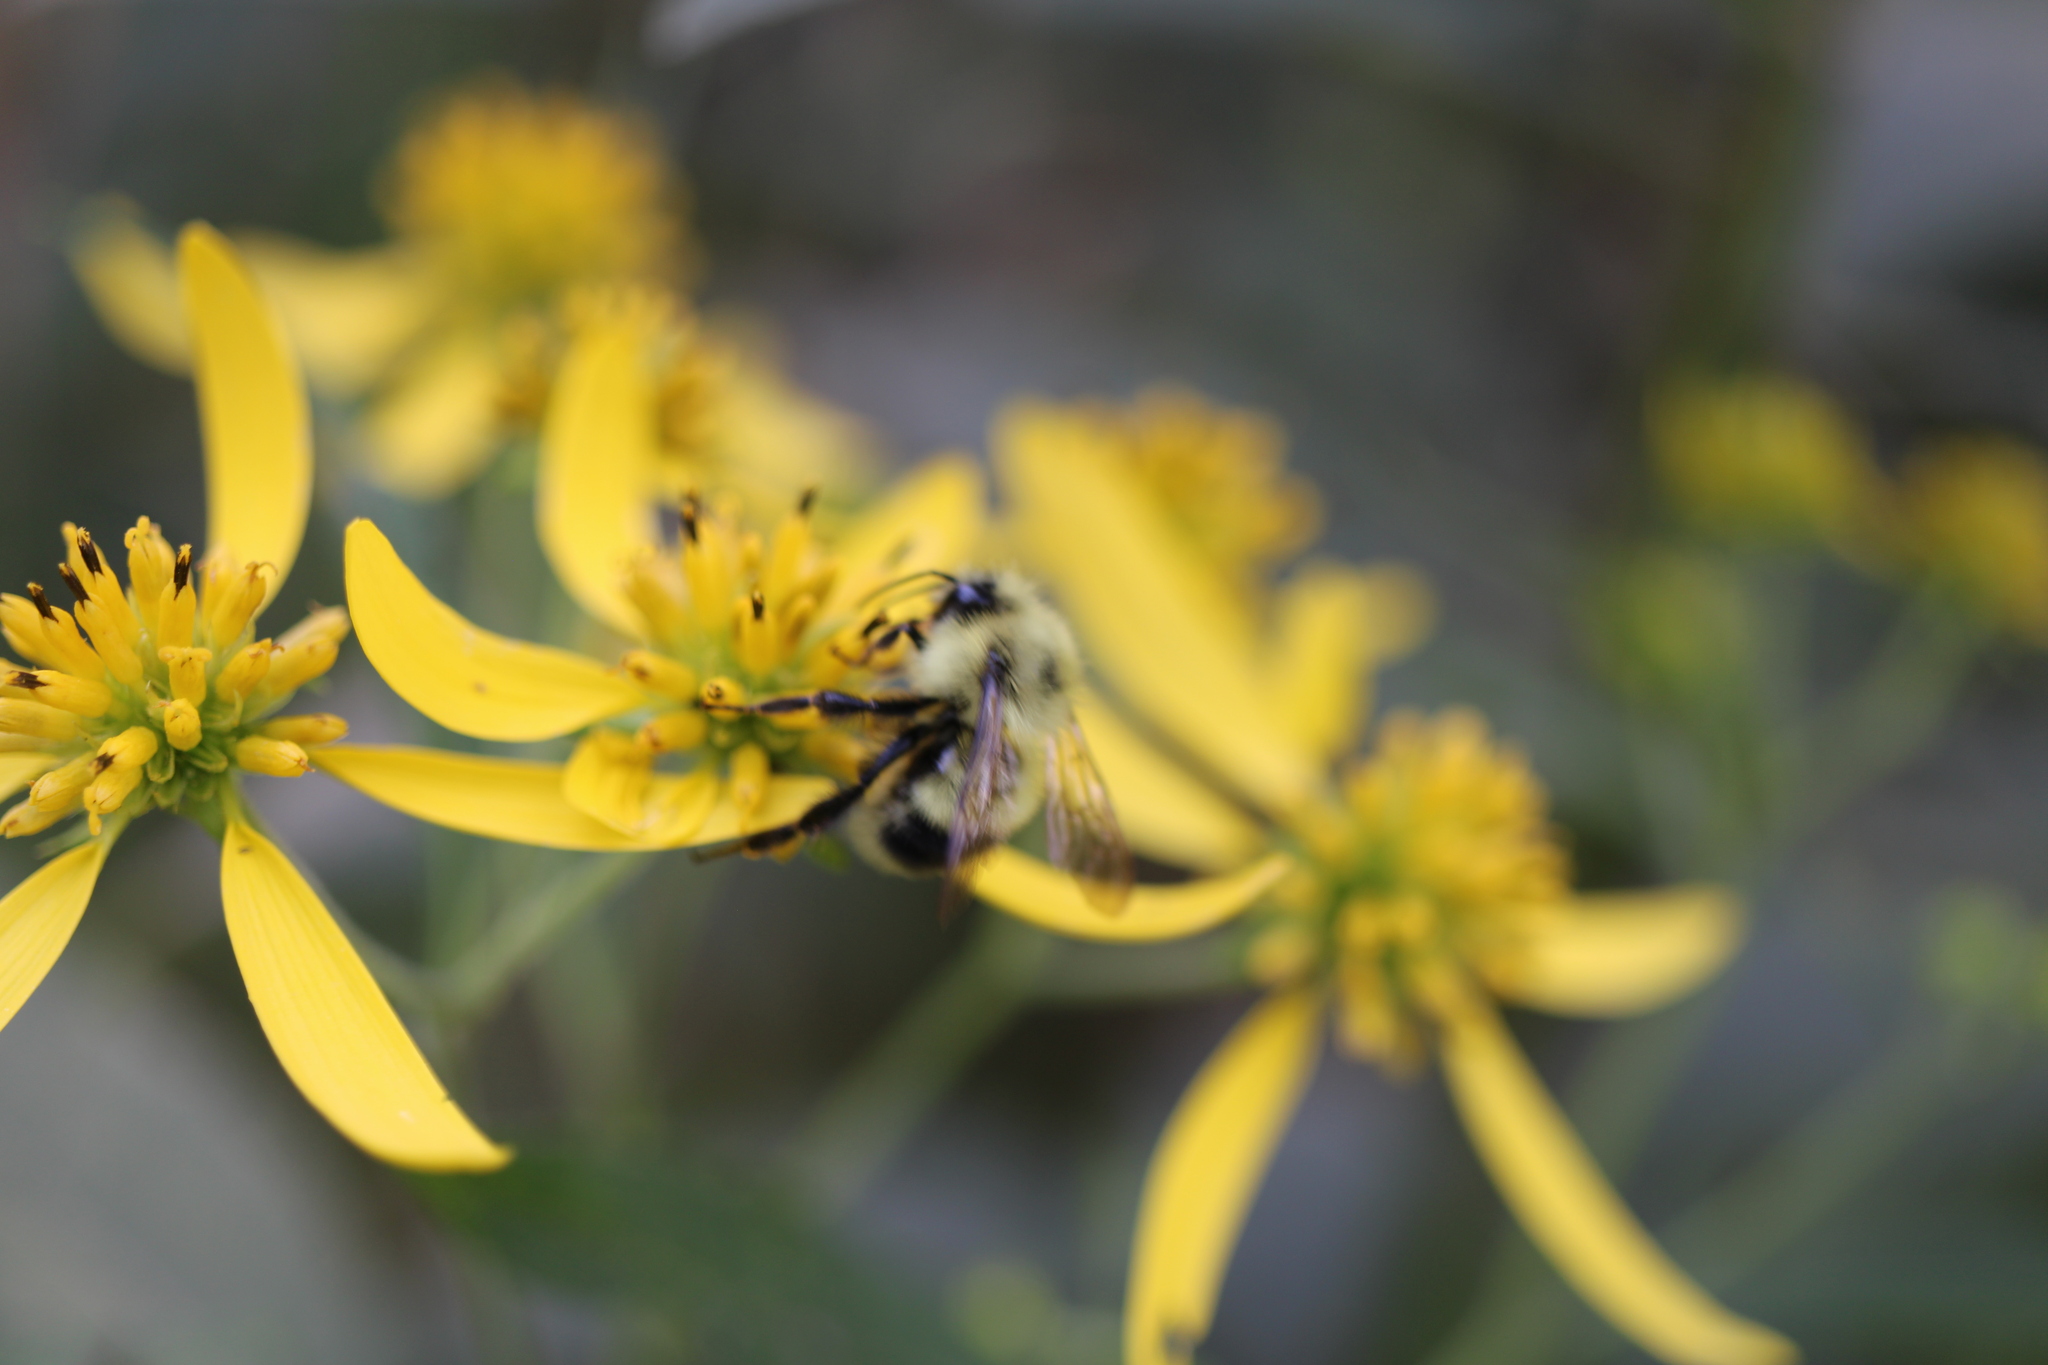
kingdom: Animalia
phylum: Arthropoda
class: Insecta
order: Hymenoptera
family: Apidae
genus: Bombus
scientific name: Bombus vagans
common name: Half-black bumble bee
